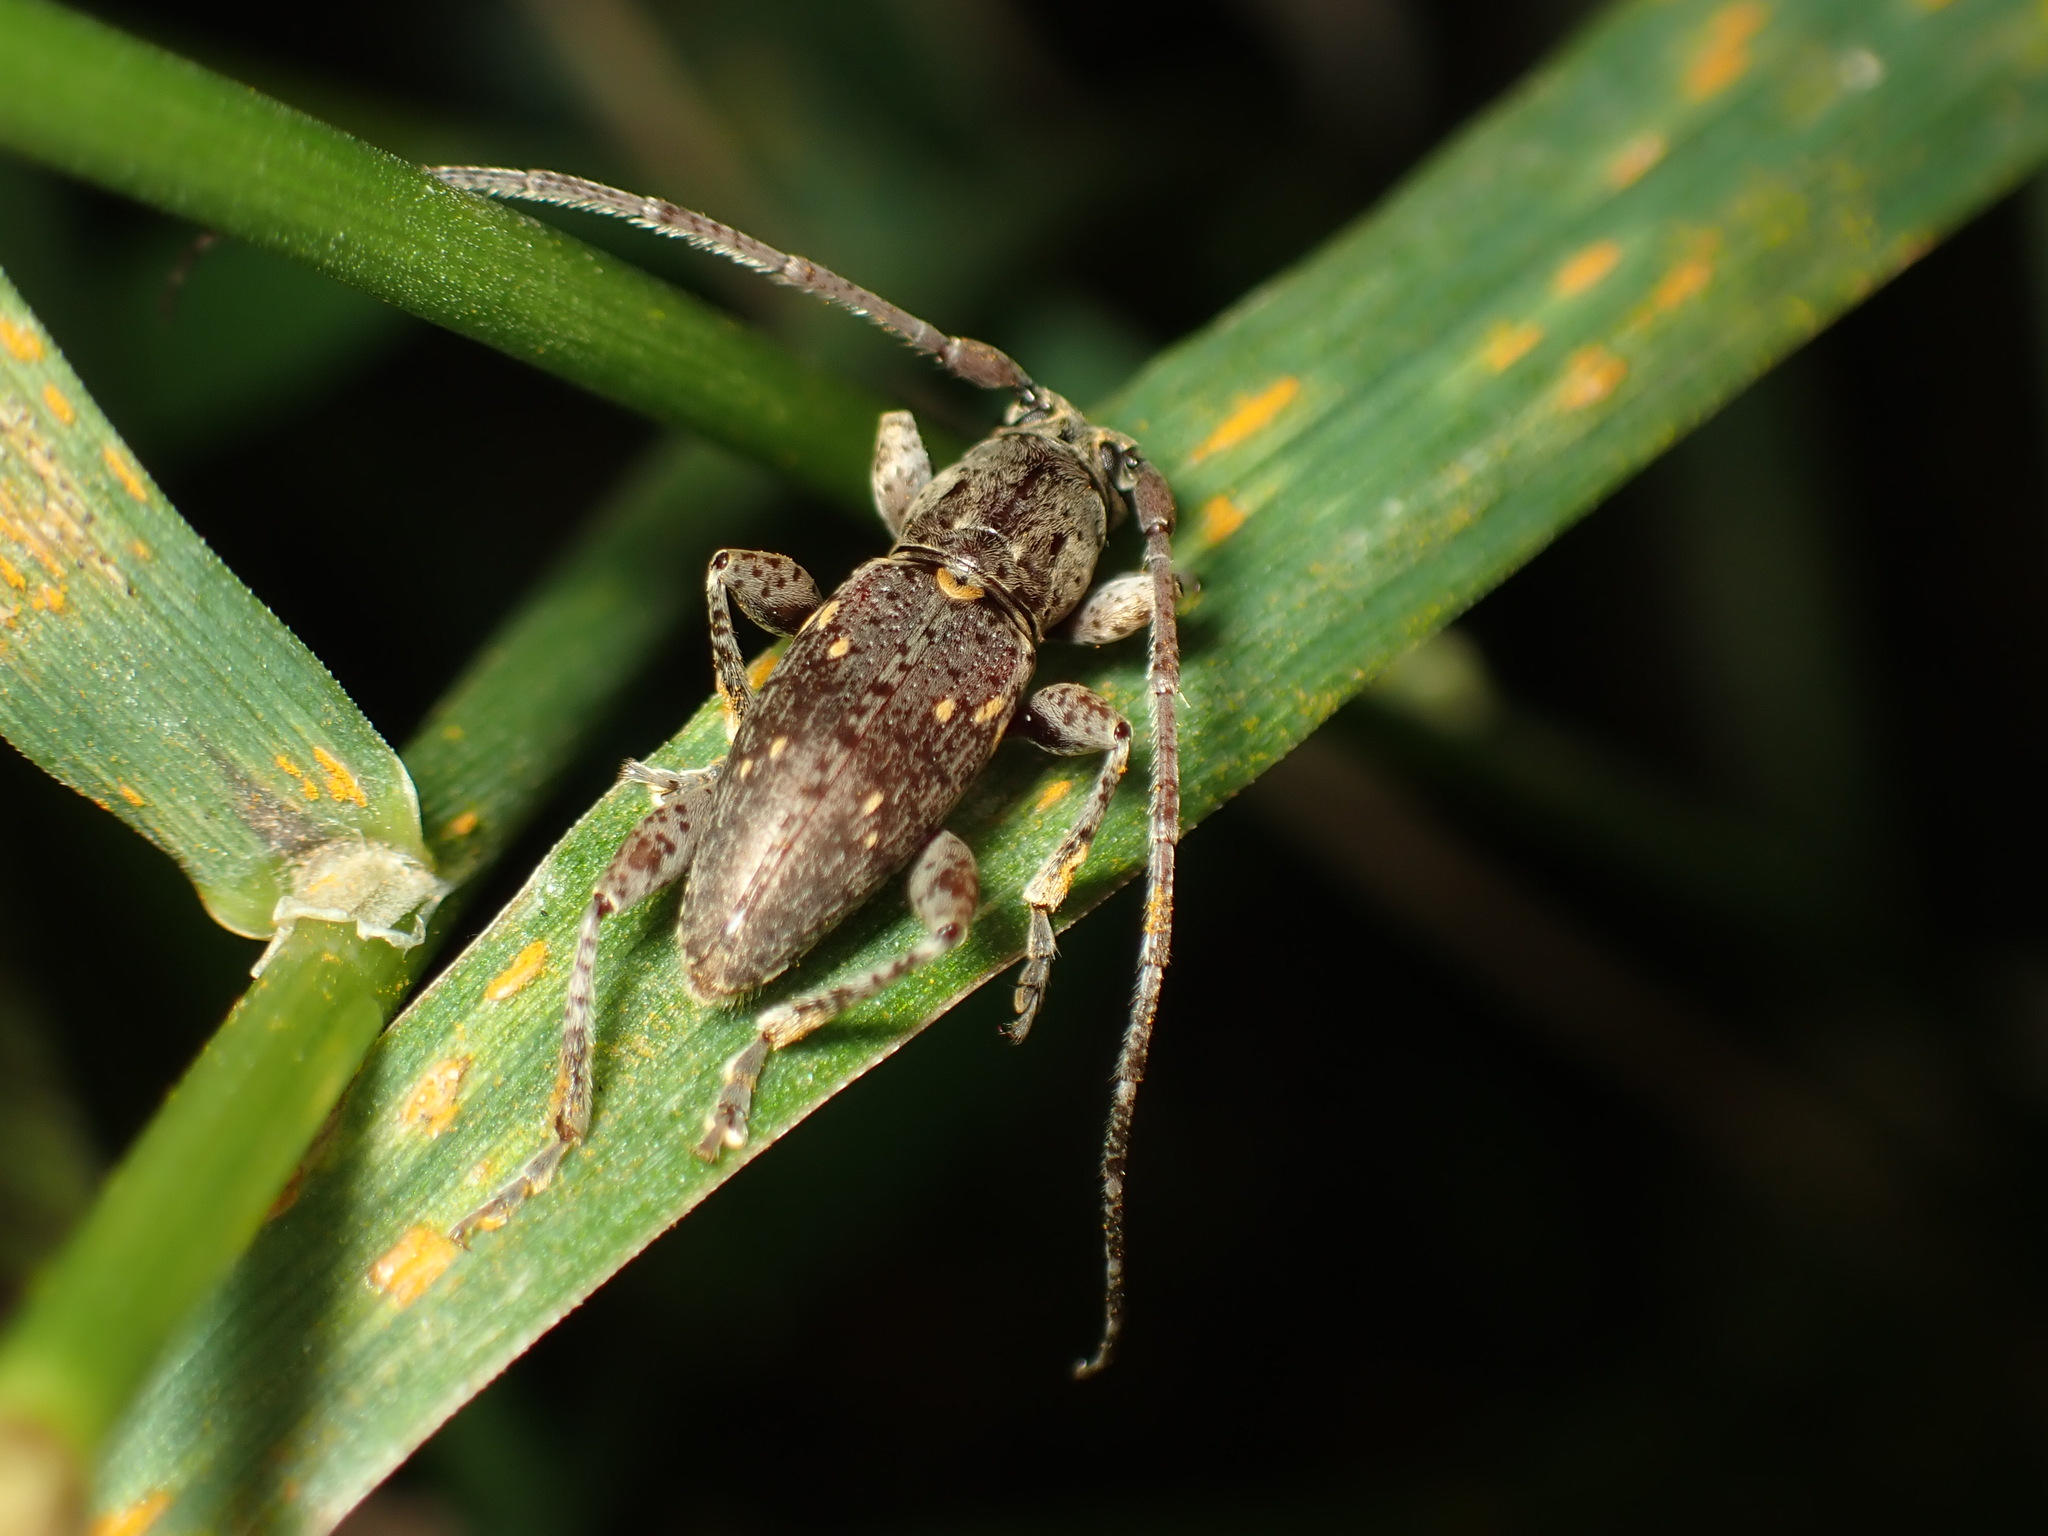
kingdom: Animalia
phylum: Arthropoda
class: Insecta
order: Coleoptera
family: Cerambycidae
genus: Xylotoles
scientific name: Xylotoles griseus
